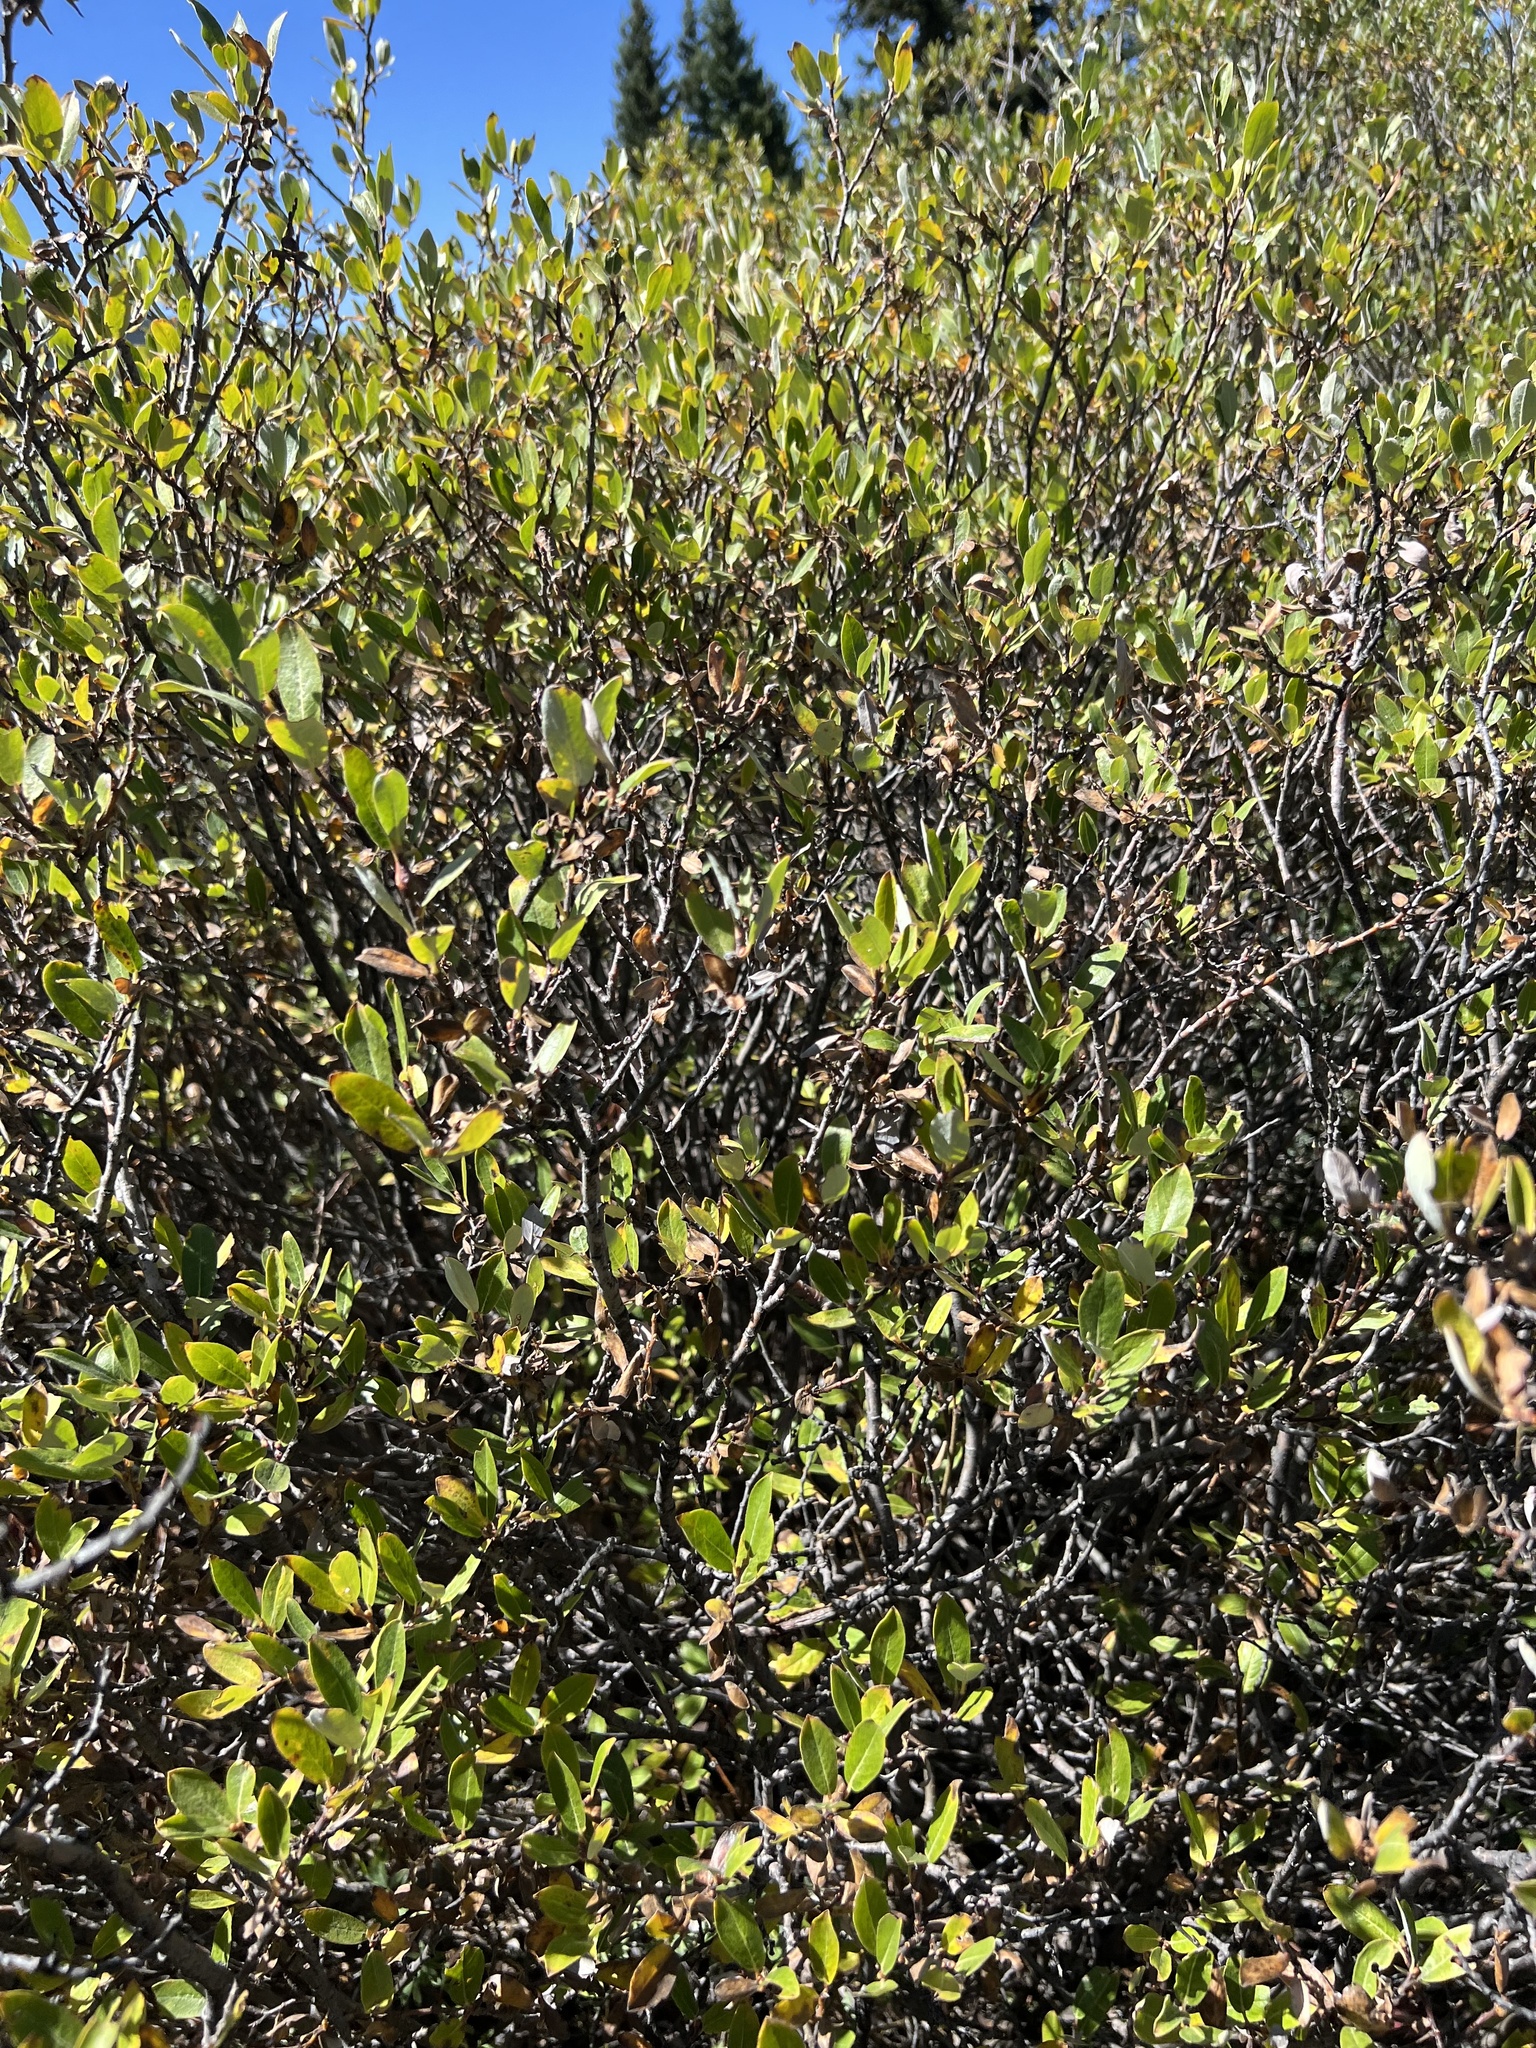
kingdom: Plantae
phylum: Tracheophyta
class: Magnoliopsida
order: Malpighiales
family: Salicaceae
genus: Salix
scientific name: Salix glauca
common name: Glaucous willow
